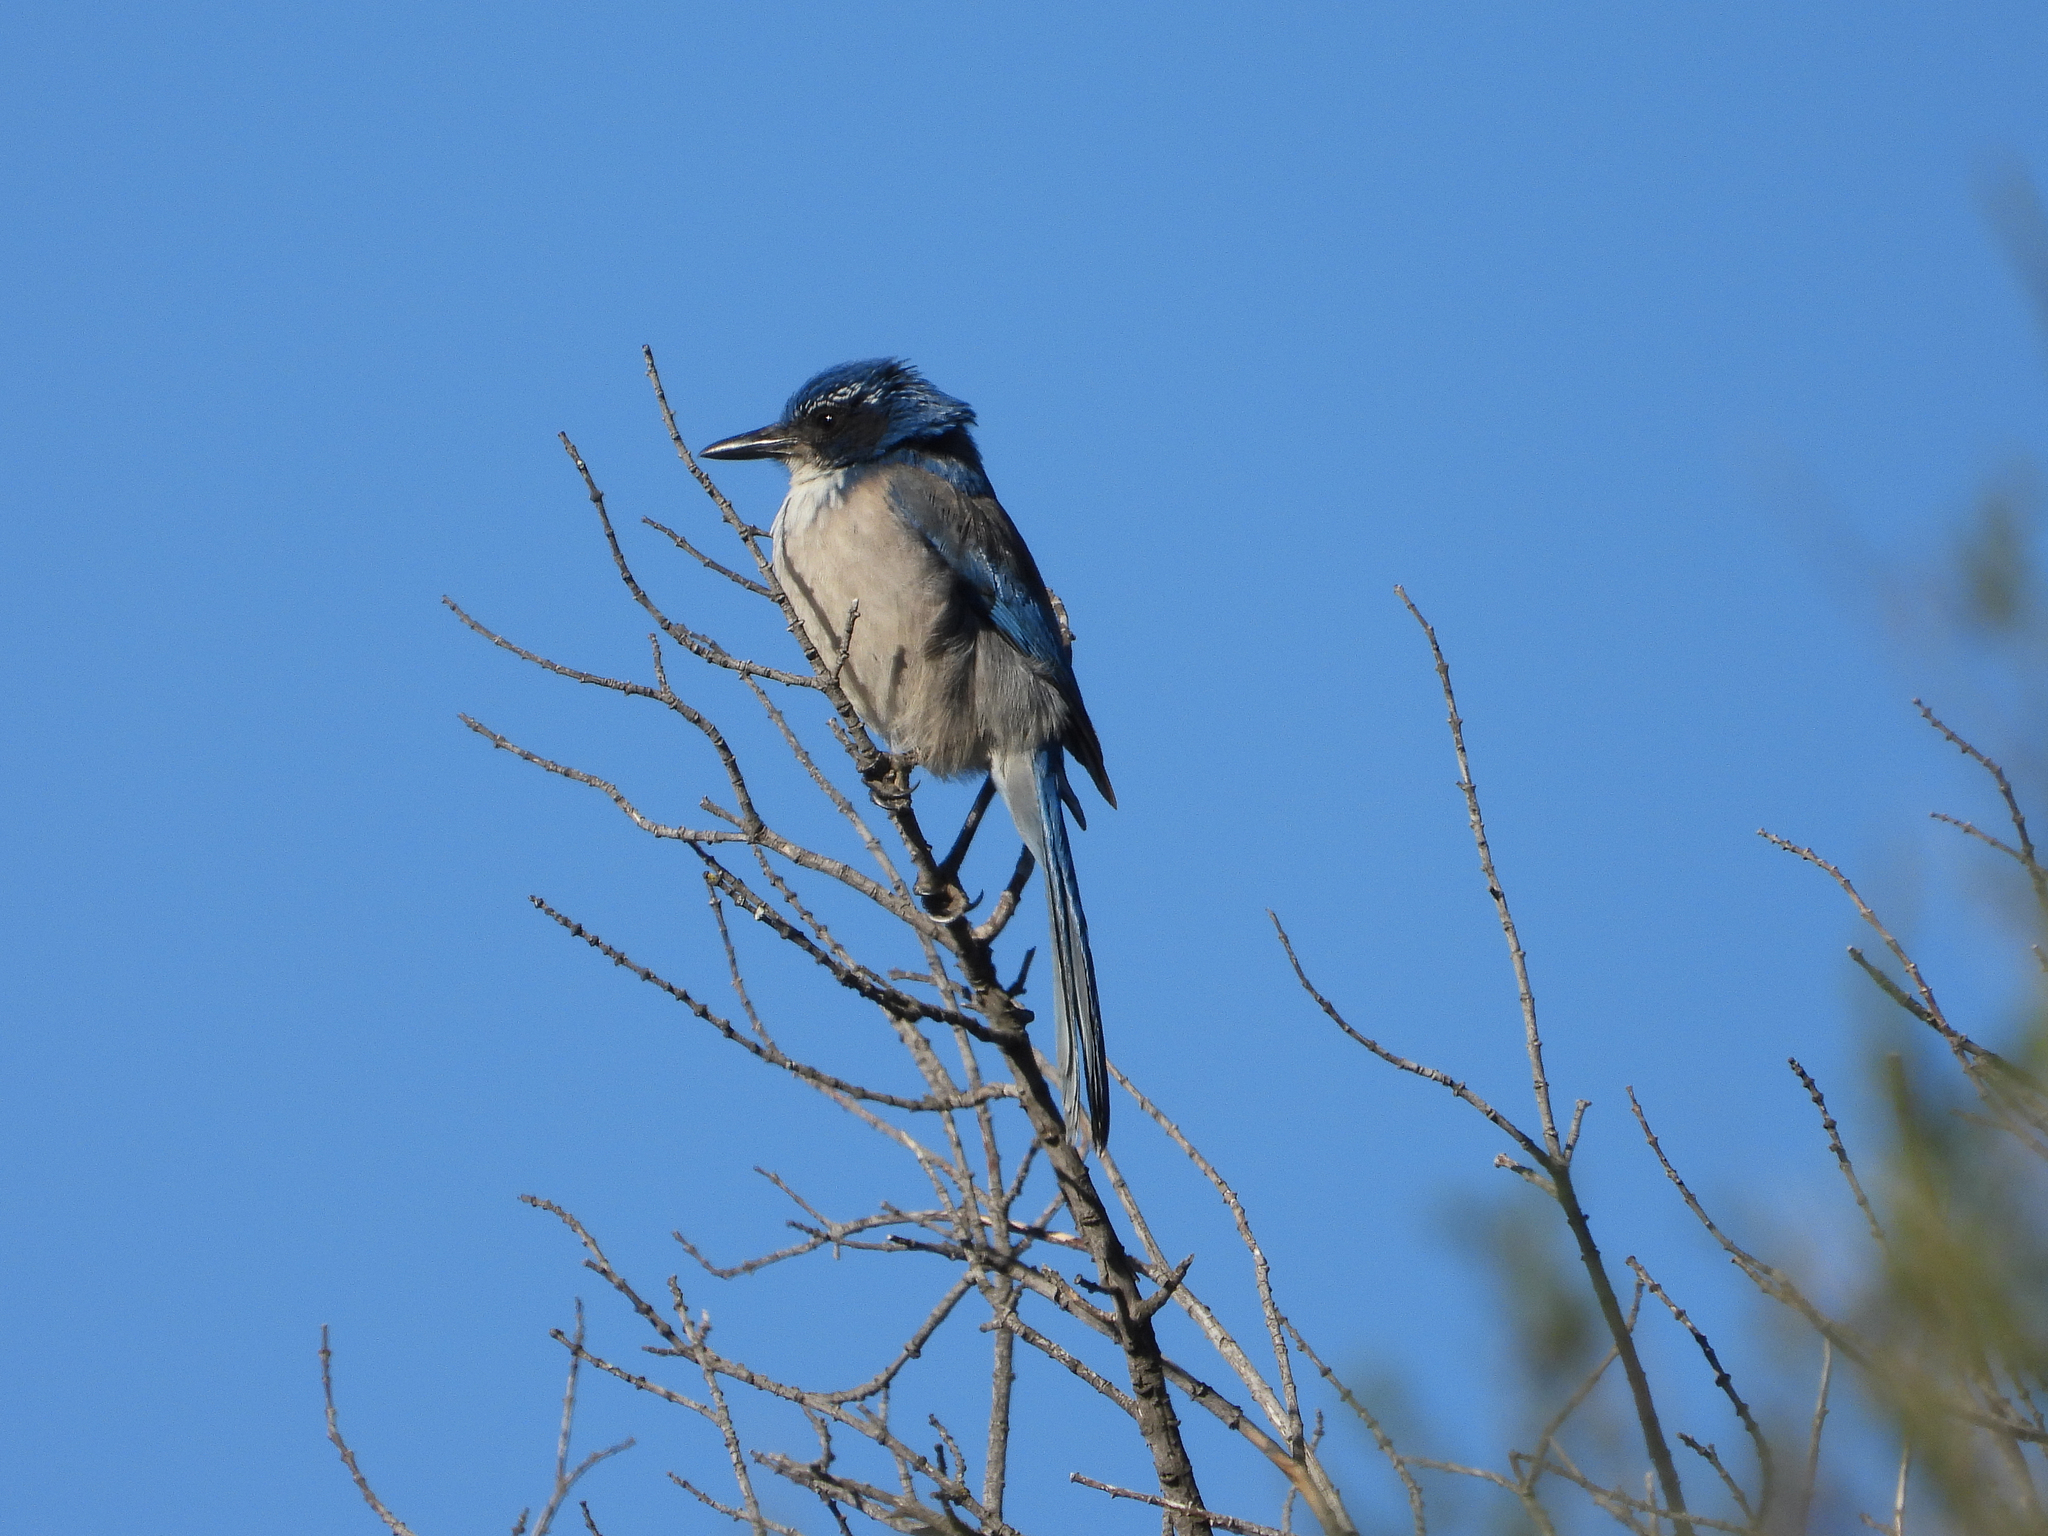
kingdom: Animalia
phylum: Chordata
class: Aves
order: Passeriformes
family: Corvidae
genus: Aphelocoma
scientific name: Aphelocoma californica
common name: California scrub-jay
